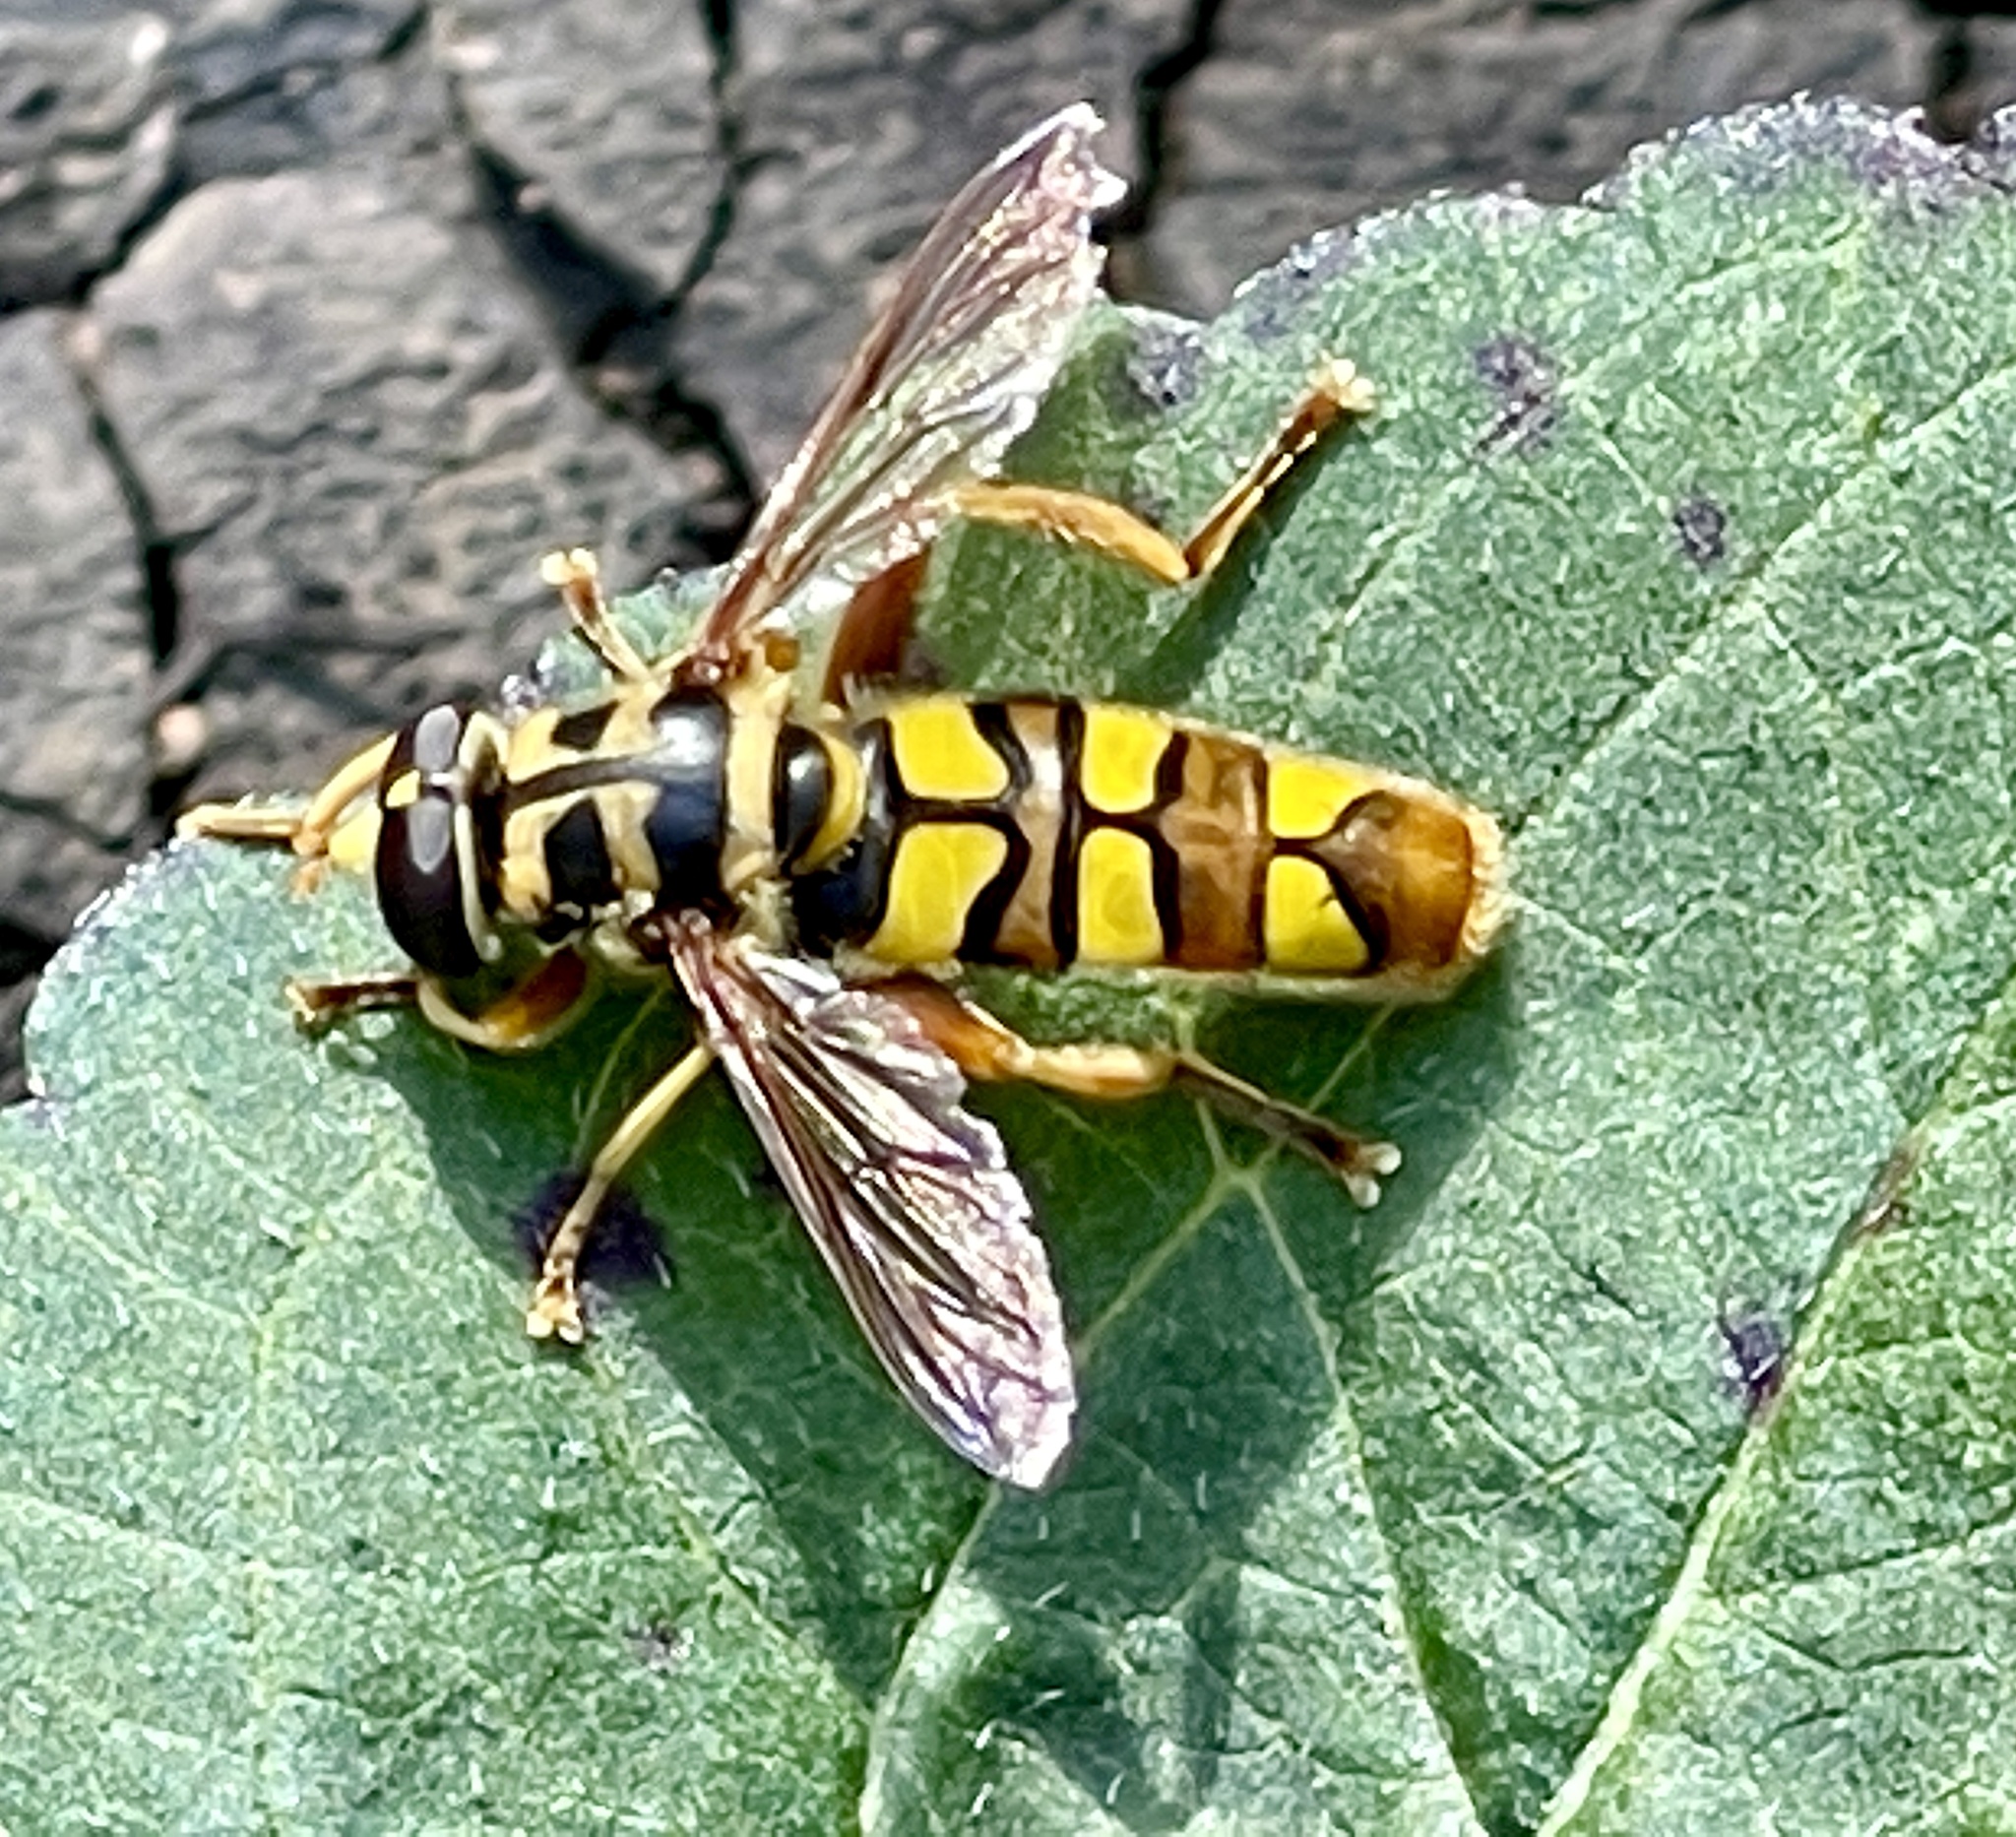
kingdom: Animalia
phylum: Arthropoda
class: Insecta
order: Diptera
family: Syrphidae
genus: Milesia
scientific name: Milesia virginiensis
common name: Virginia giant
